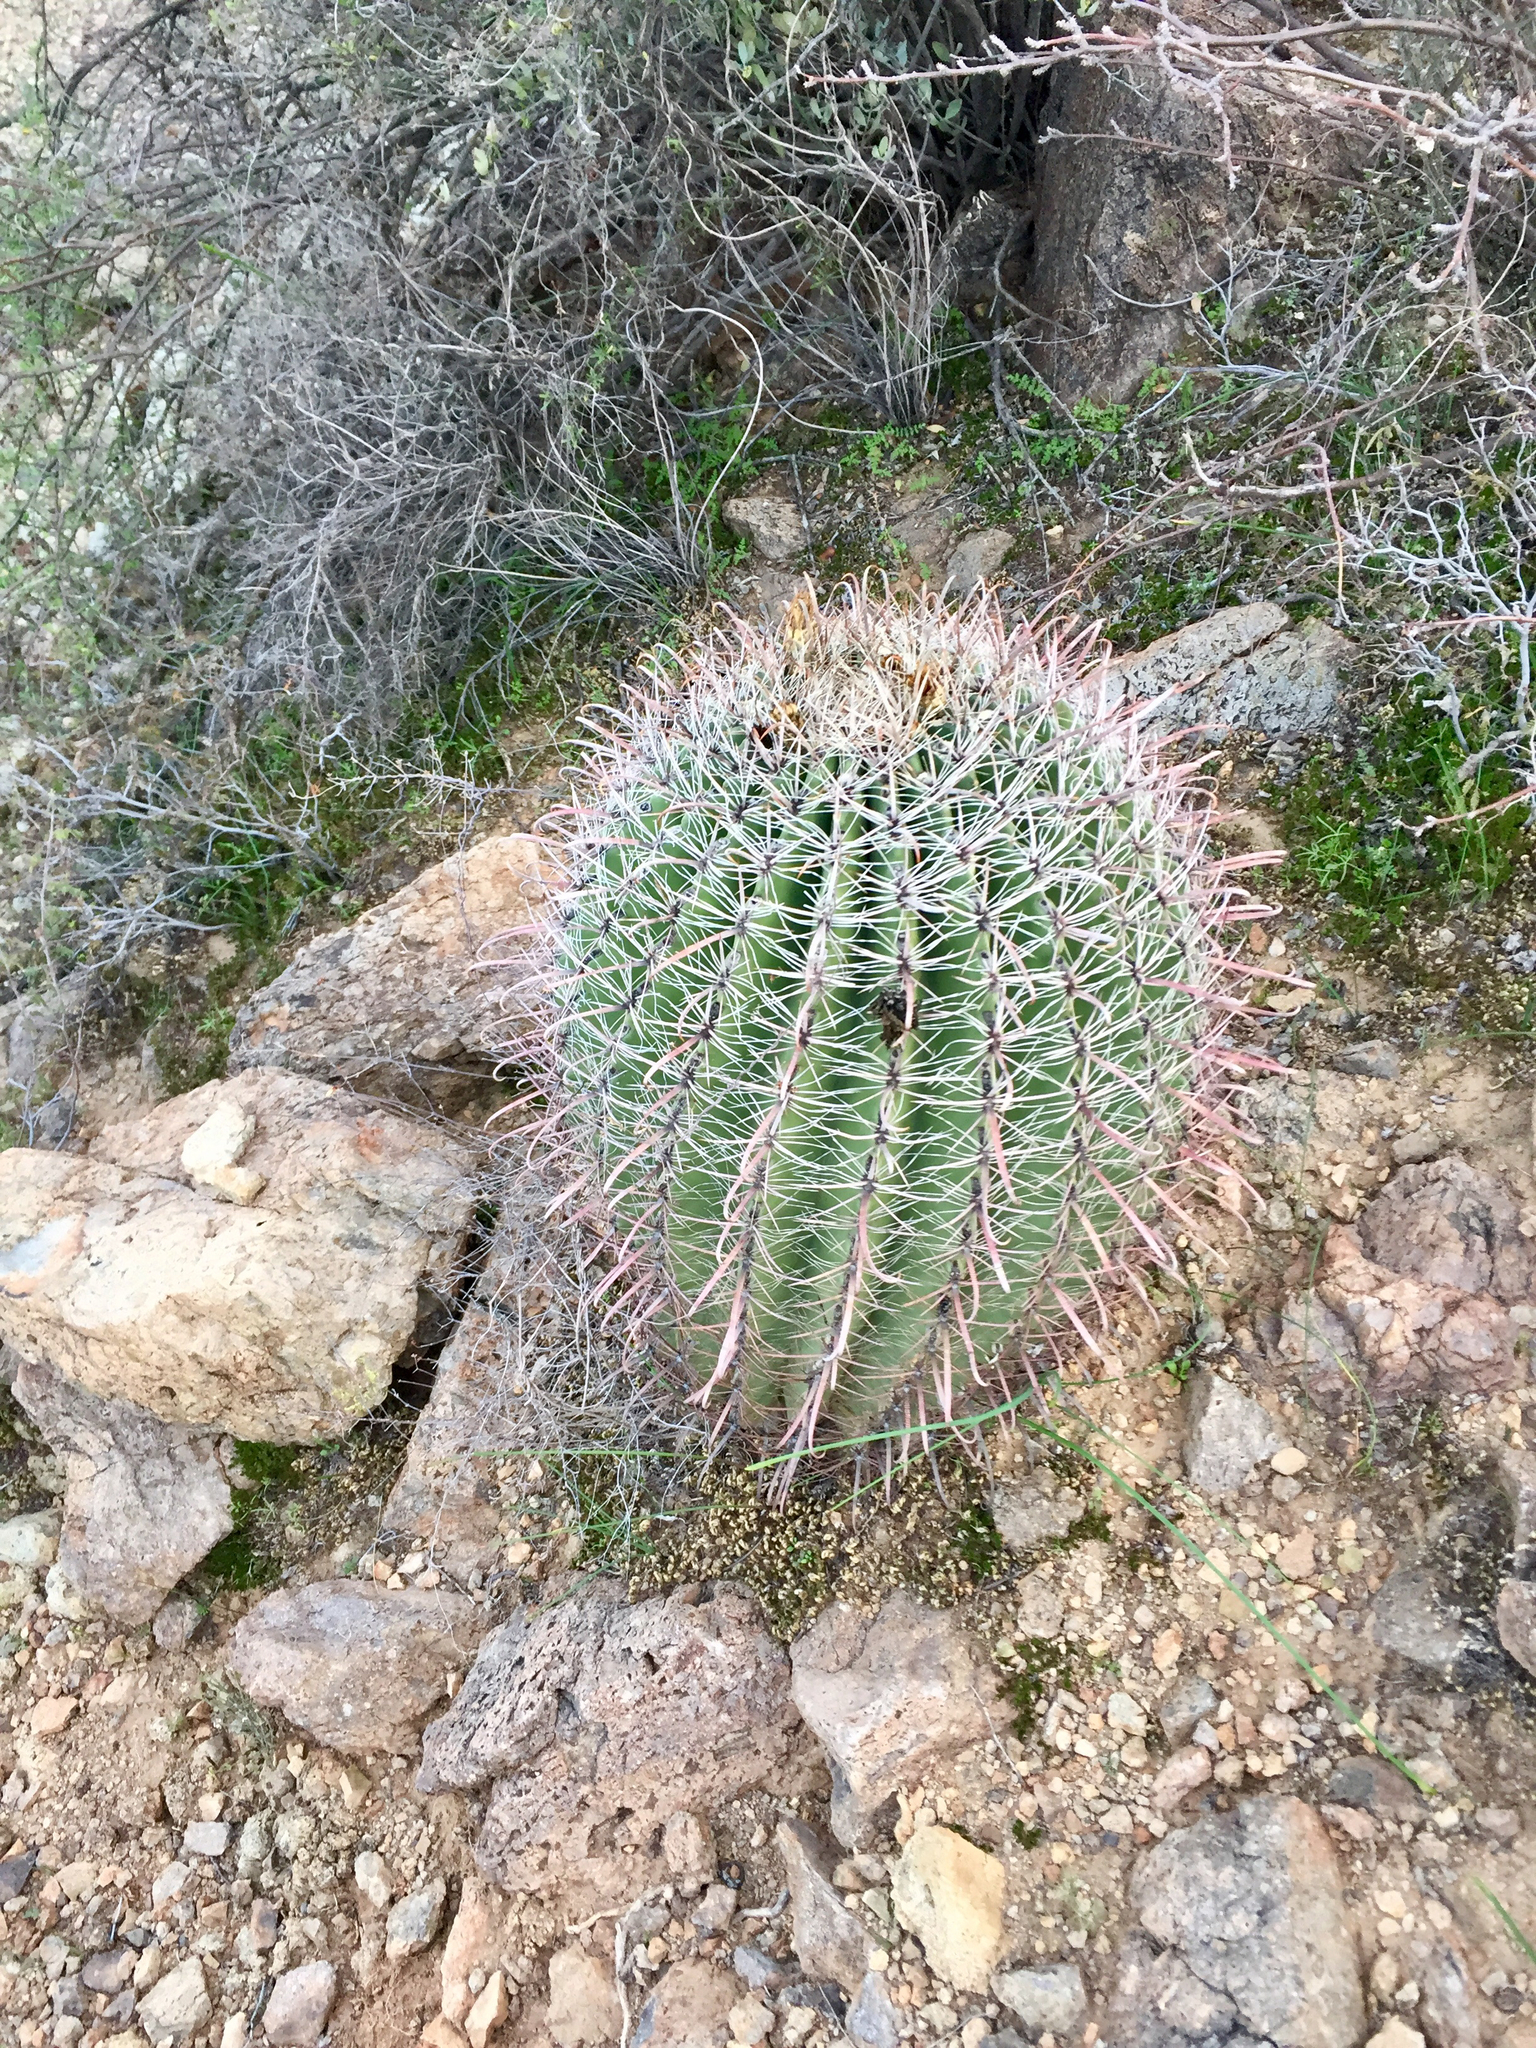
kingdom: Plantae
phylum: Tracheophyta
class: Magnoliopsida
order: Caryophyllales
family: Cactaceae
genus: Ferocactus
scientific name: Ferocactus wislizeni
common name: Candy barrel cactus
